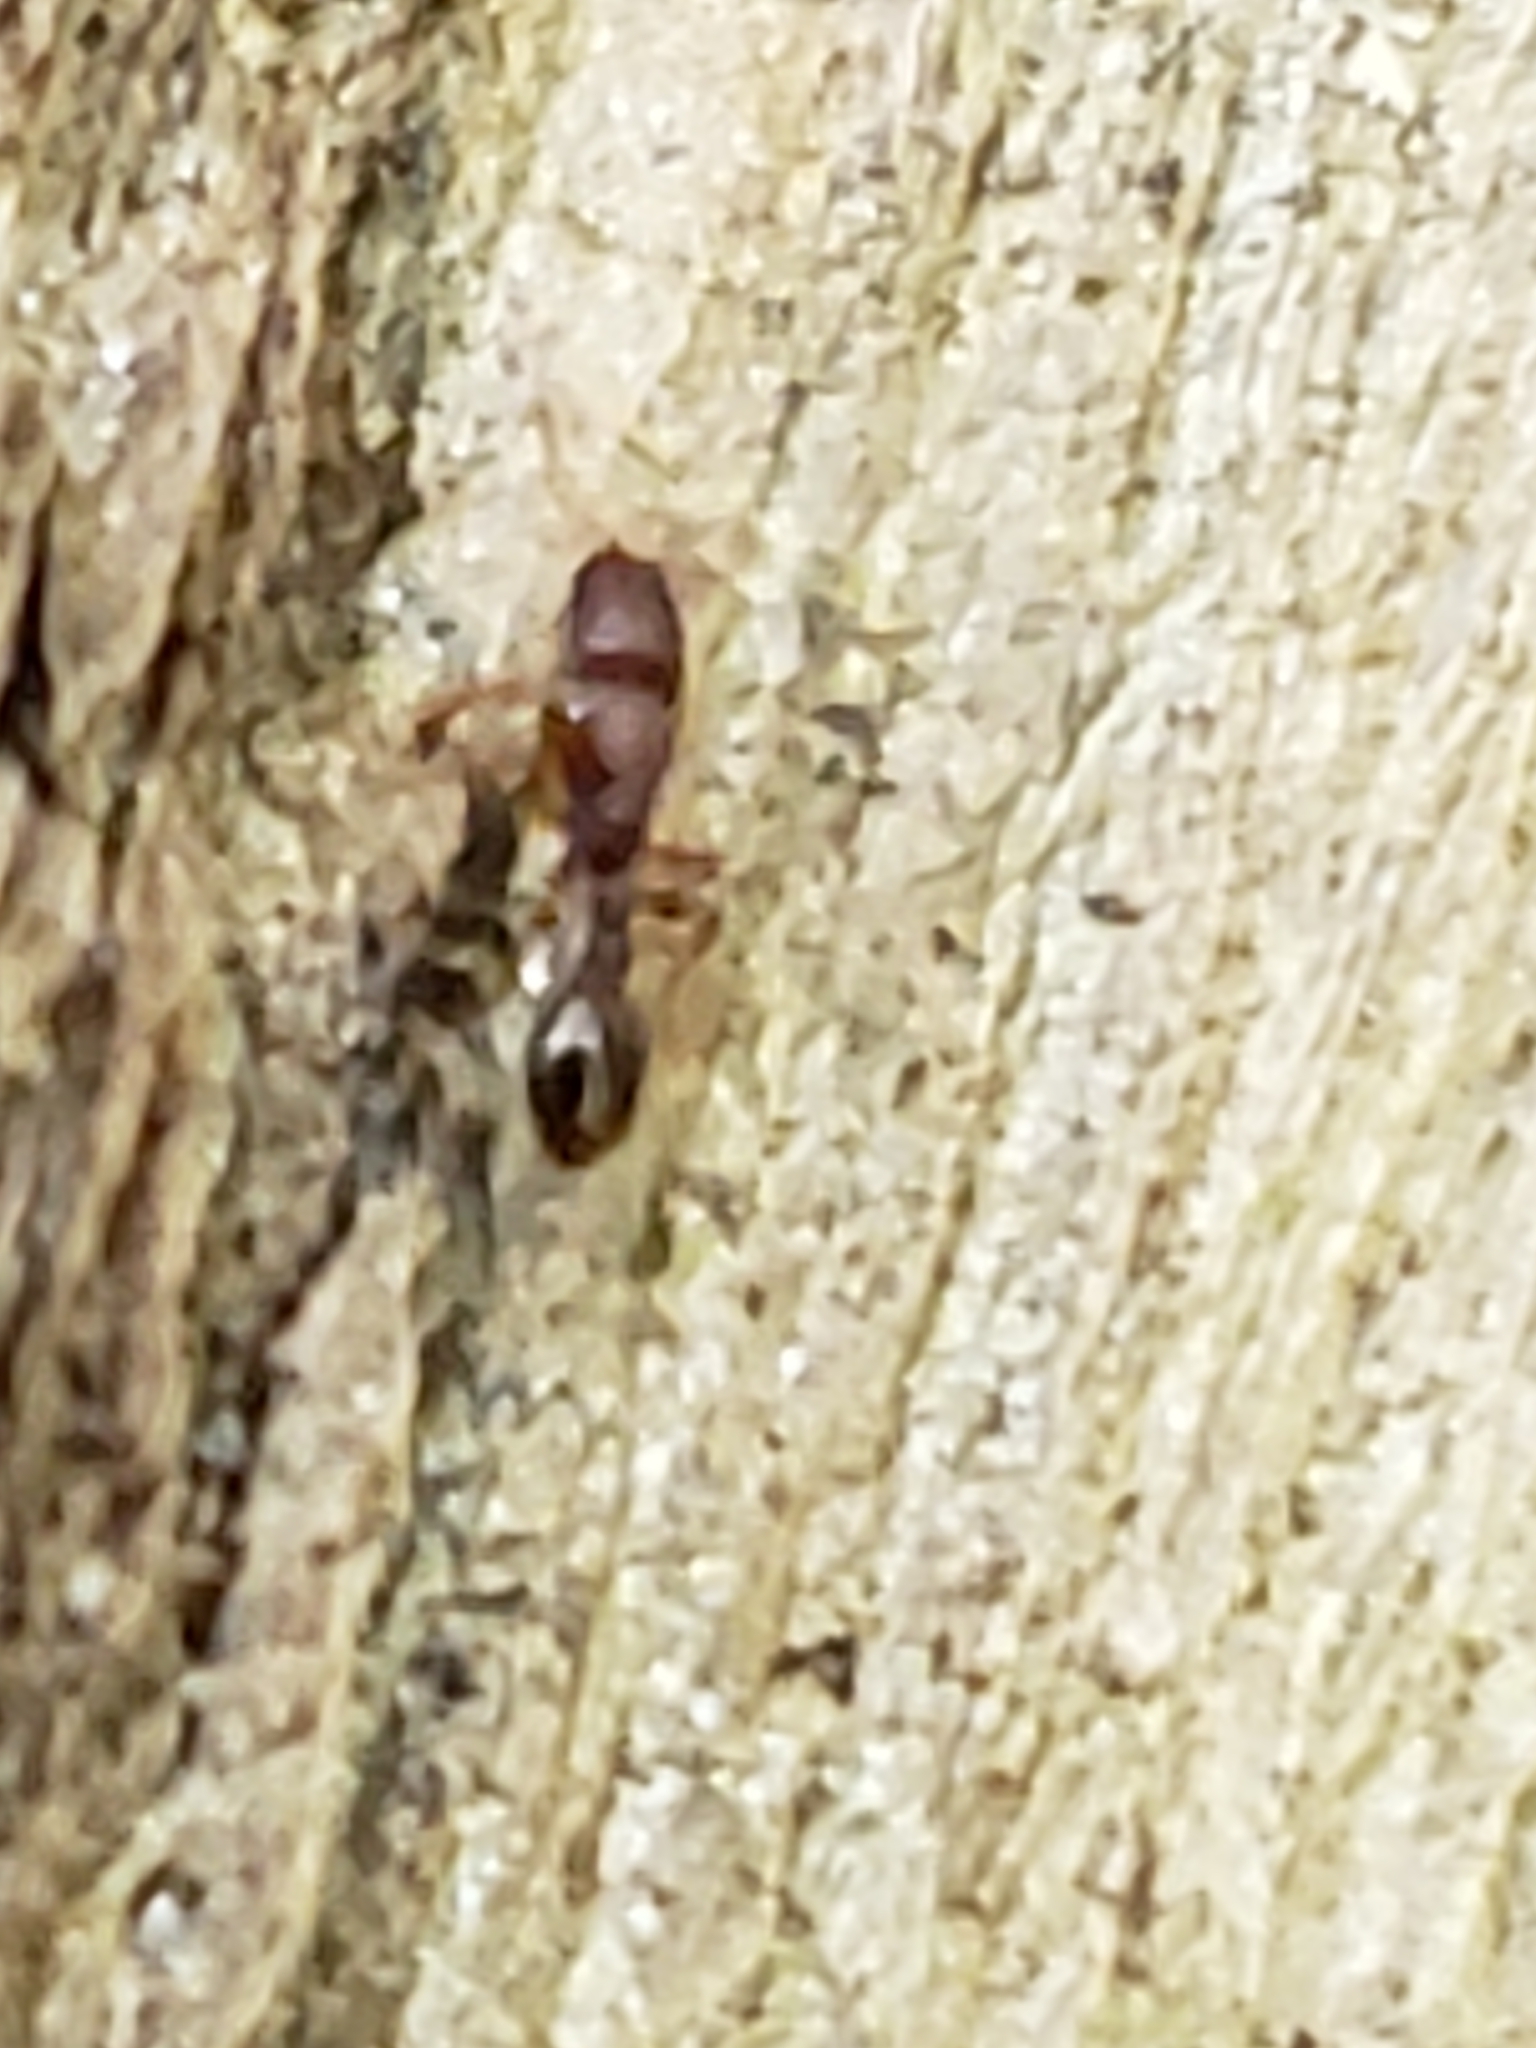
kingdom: Animalia
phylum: Arthropoda
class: Insecta
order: Hymenoptera
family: Formicidae
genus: Vollenhovia
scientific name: Vollenhovia emeryi
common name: Ant
